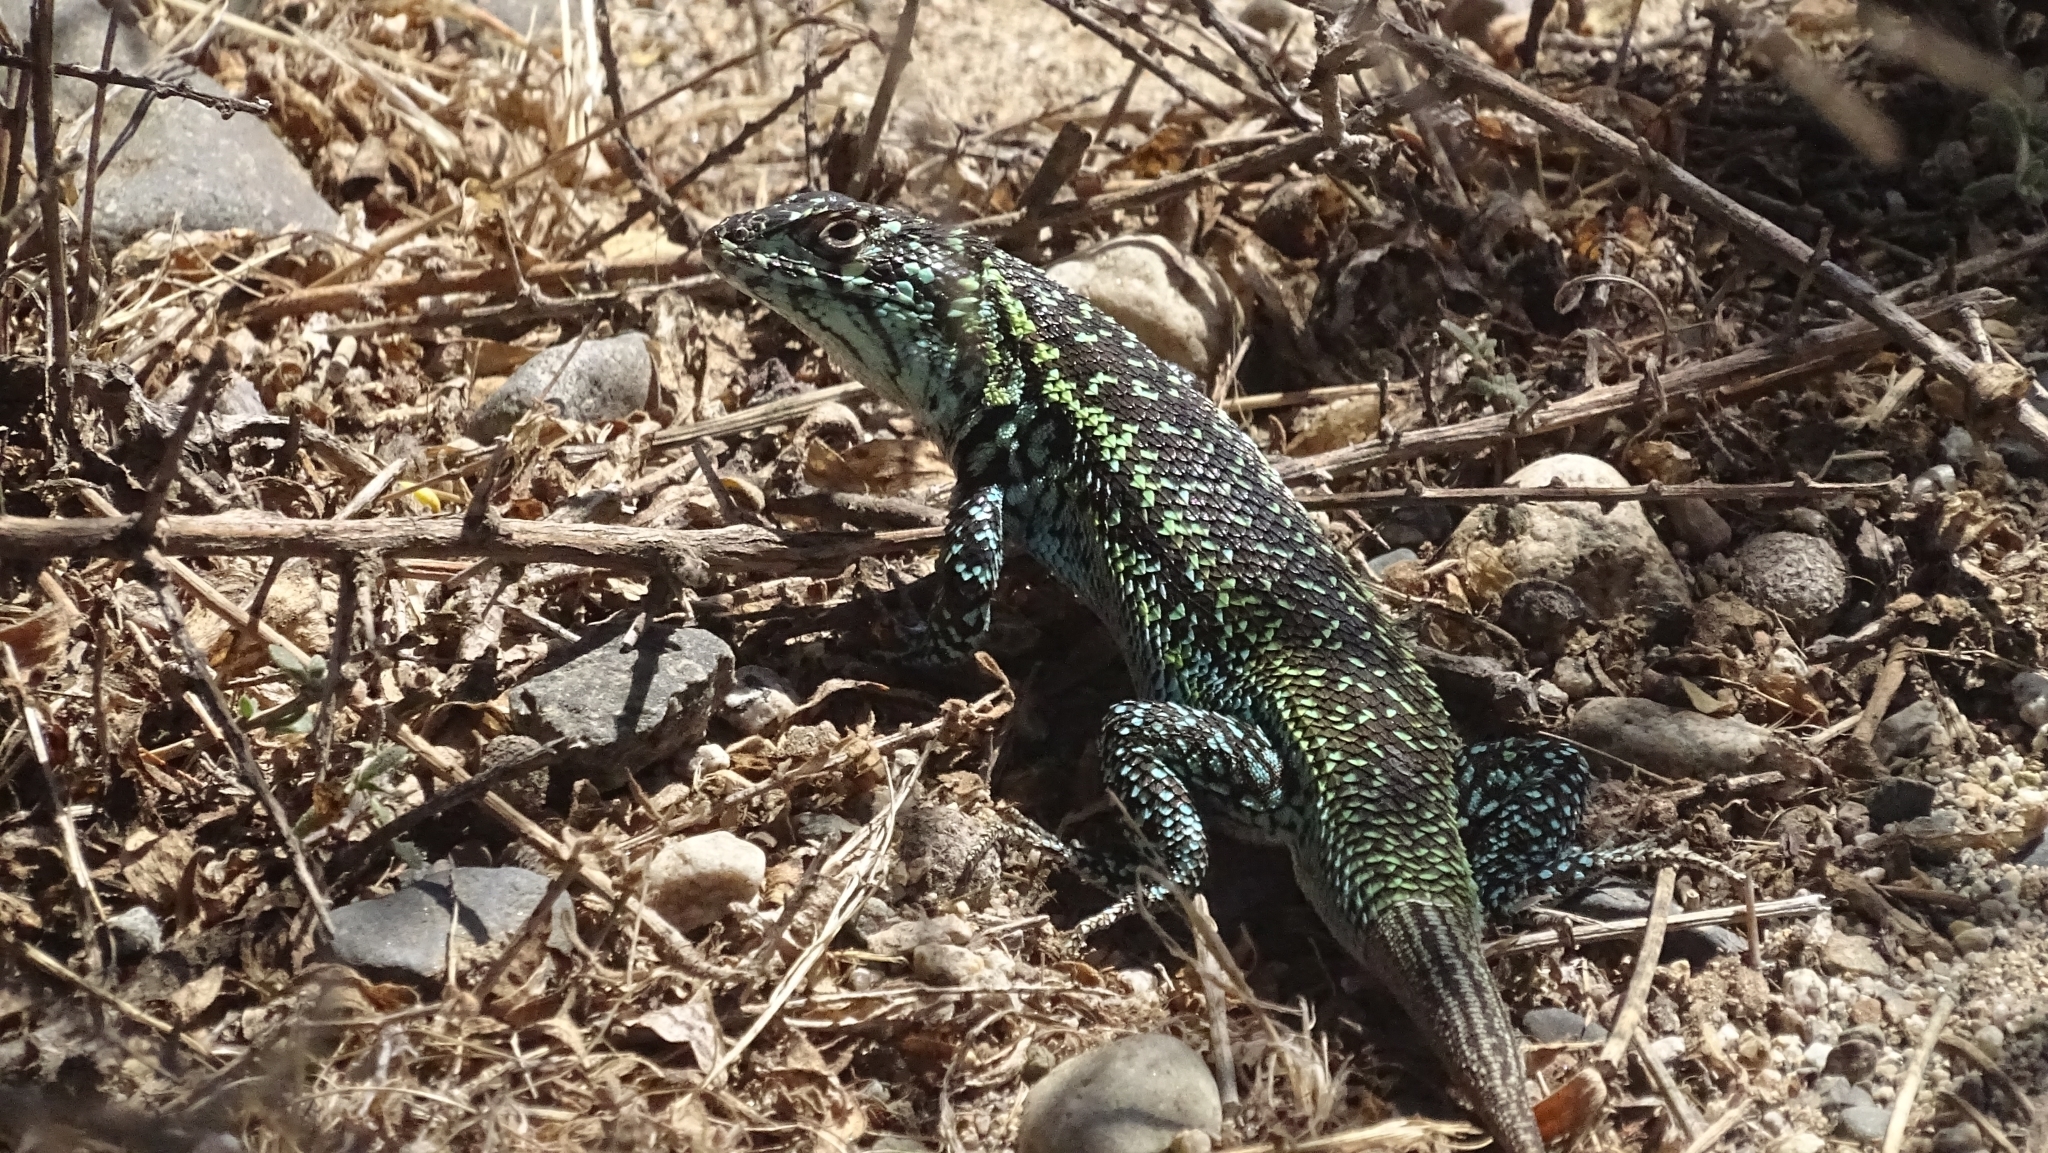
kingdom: Animalia
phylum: Chordata
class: Squamata
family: Liolaemidae
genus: Liolaemus
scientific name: Liolaemus zapallarensis
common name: Zapallaren tree iguana
